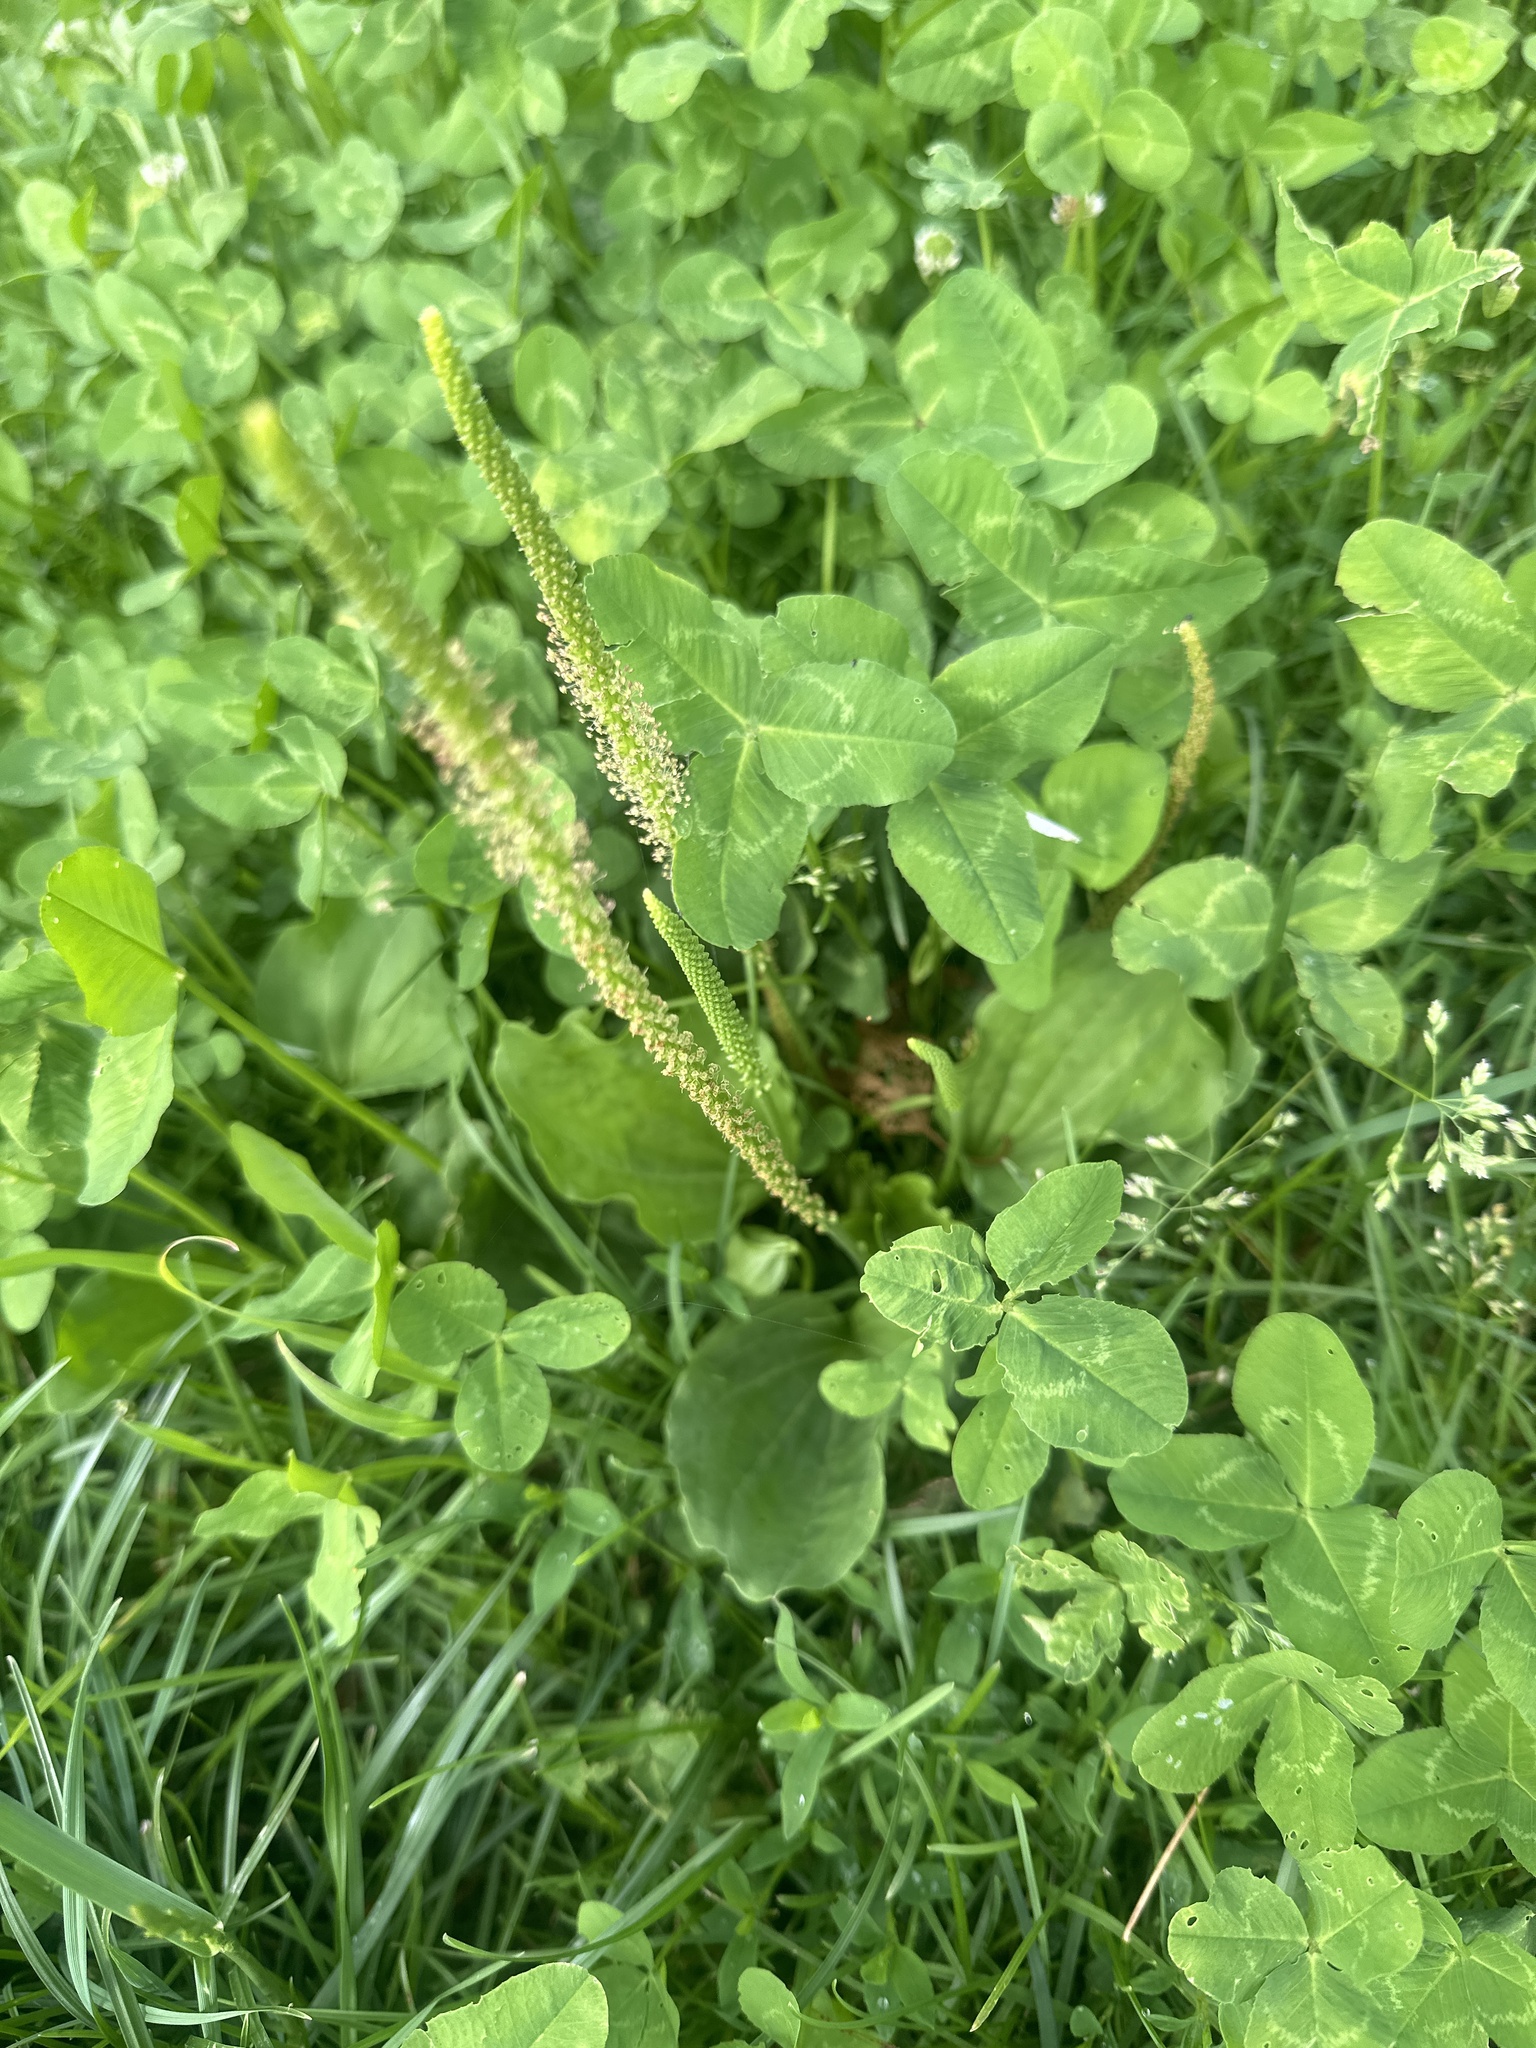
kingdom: Plantae
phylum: Tracheophyta
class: Magnoliopsida
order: Lamiales
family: Plantaginaceae
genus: Plantago
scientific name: Plantago major
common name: Common plantain
